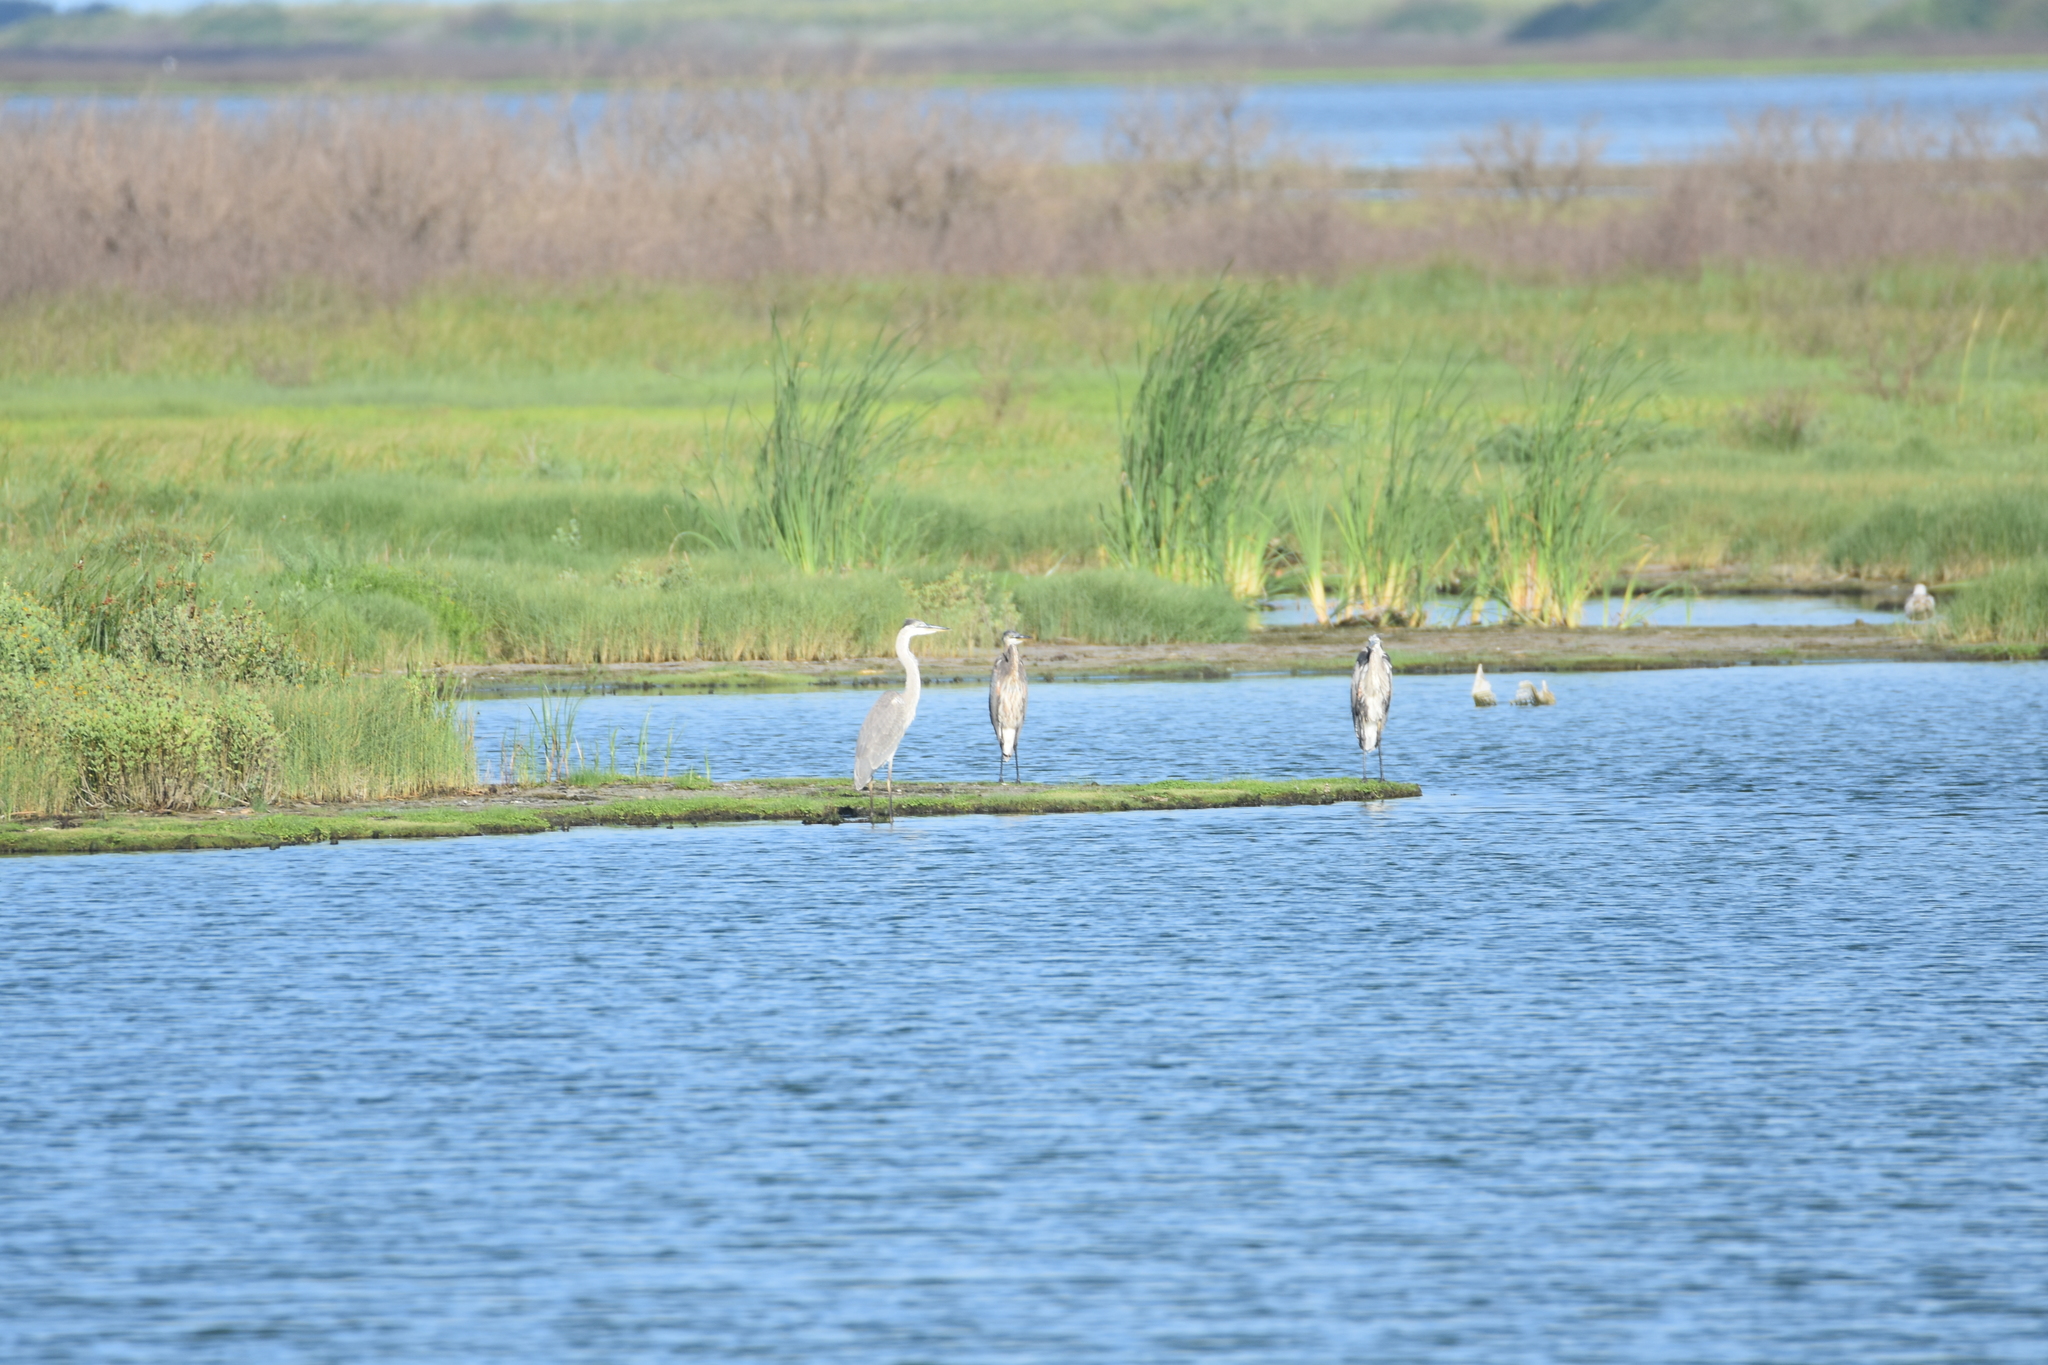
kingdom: Animalia
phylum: Chordata
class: Aves
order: Pelecaniformes
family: Ardeidae
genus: Ardea
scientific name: Ardea herodias
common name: Great blue heron
